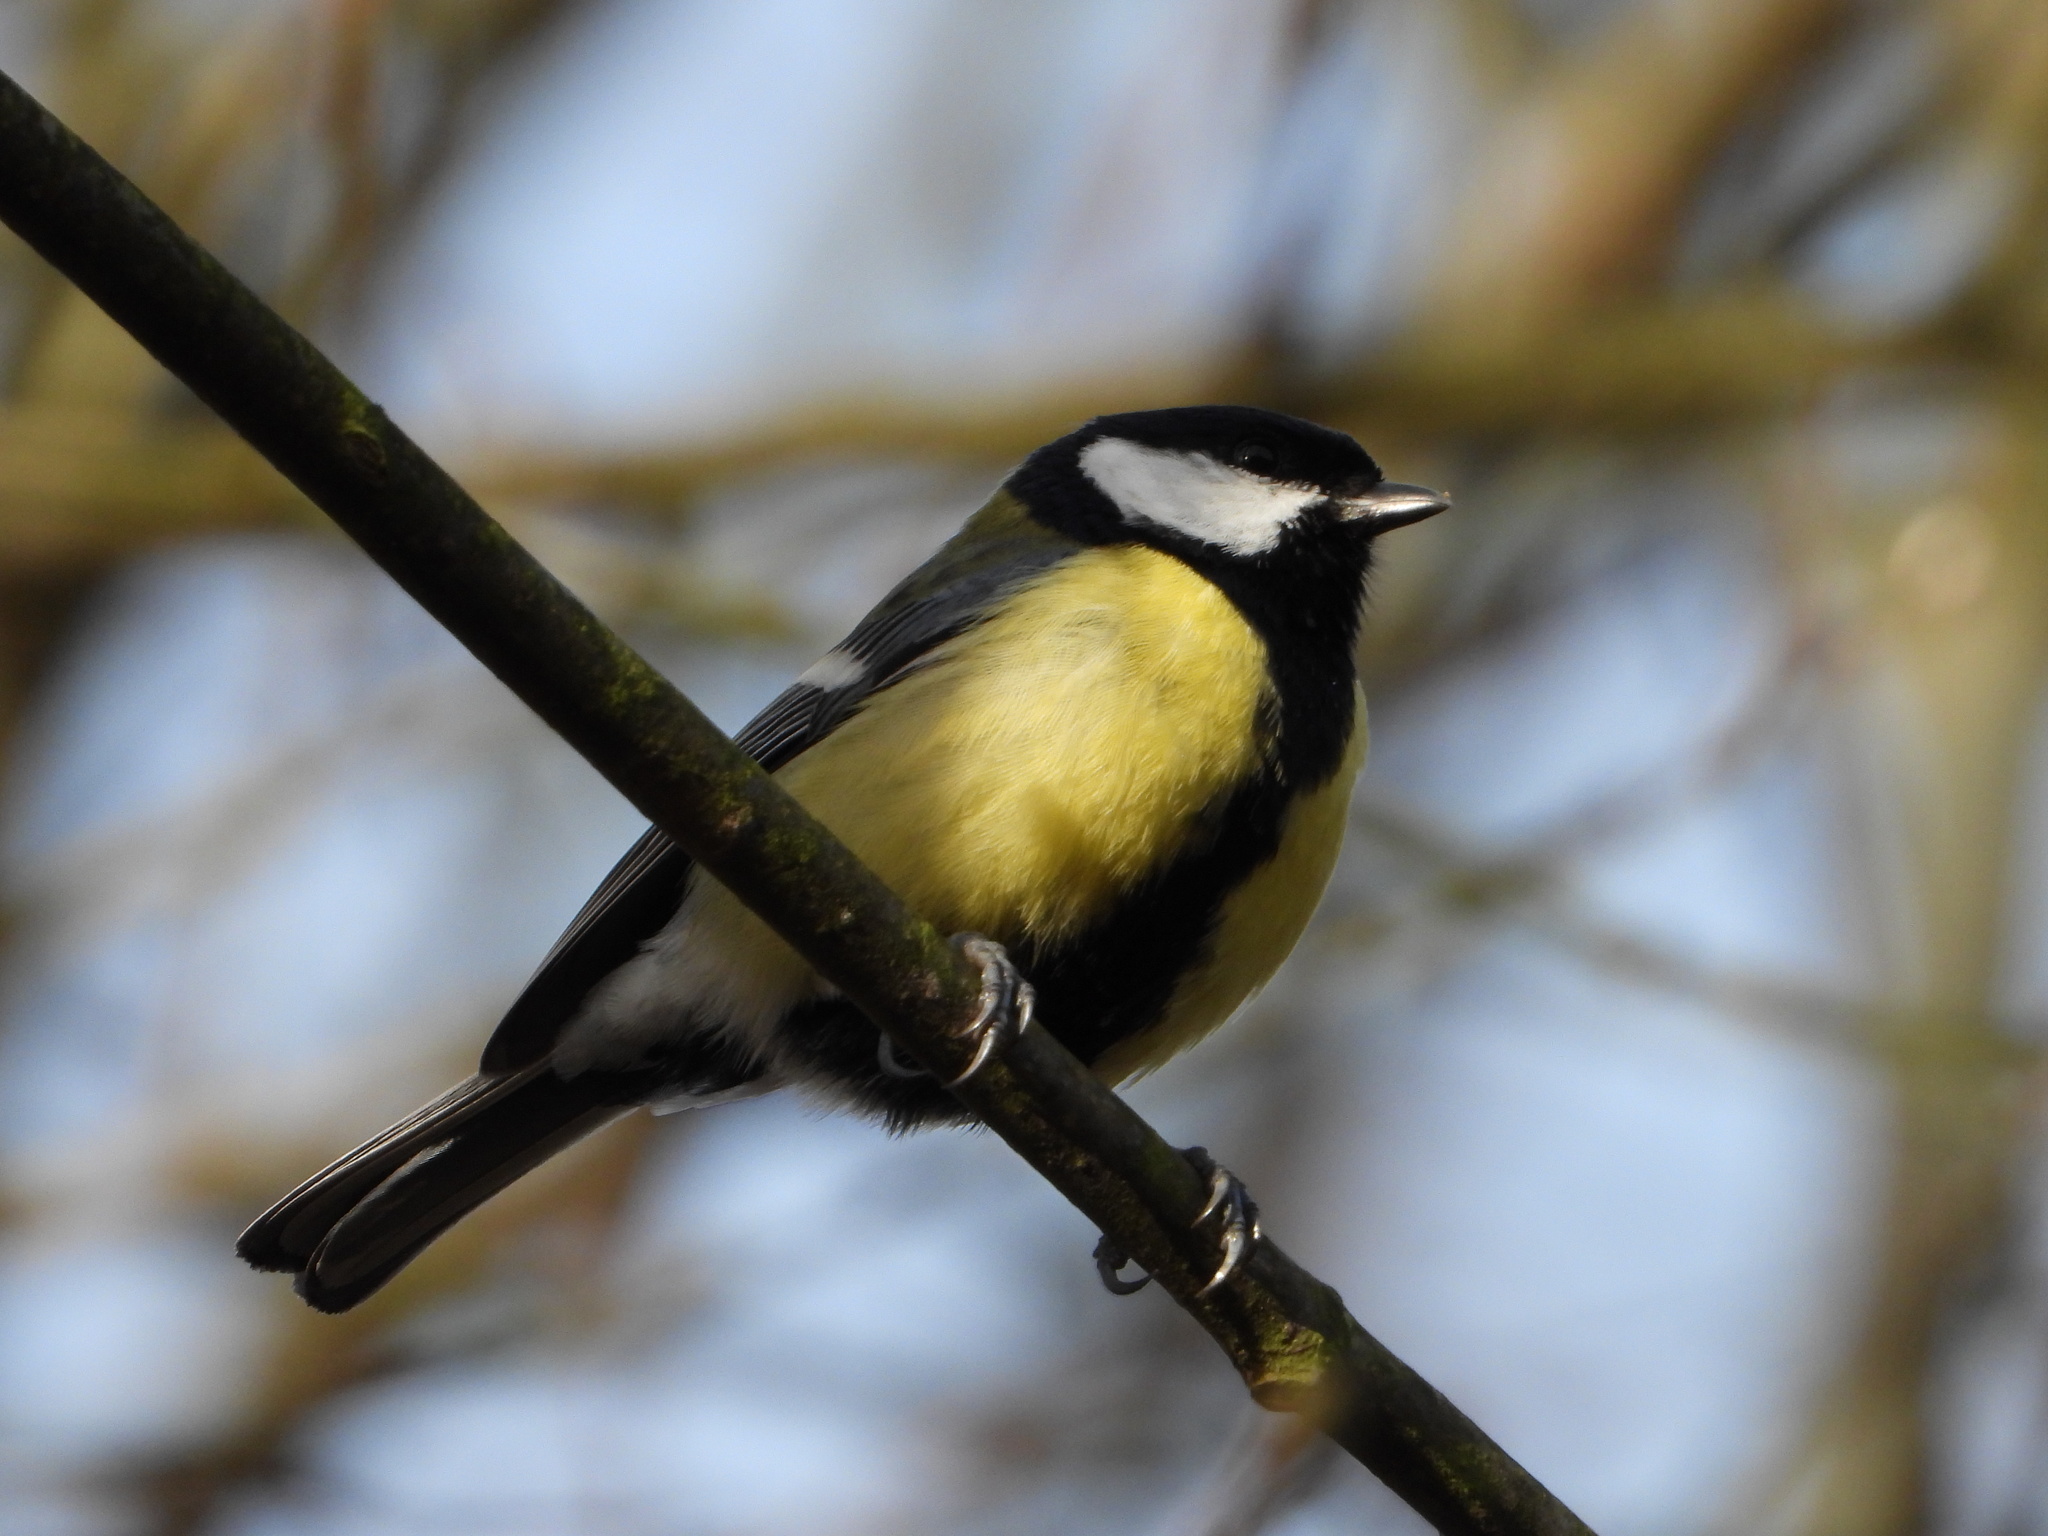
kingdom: Animalia
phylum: Chordata
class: Aves
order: Passeriformes
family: Paridae
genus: Parus
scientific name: Parus major
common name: Great tit
